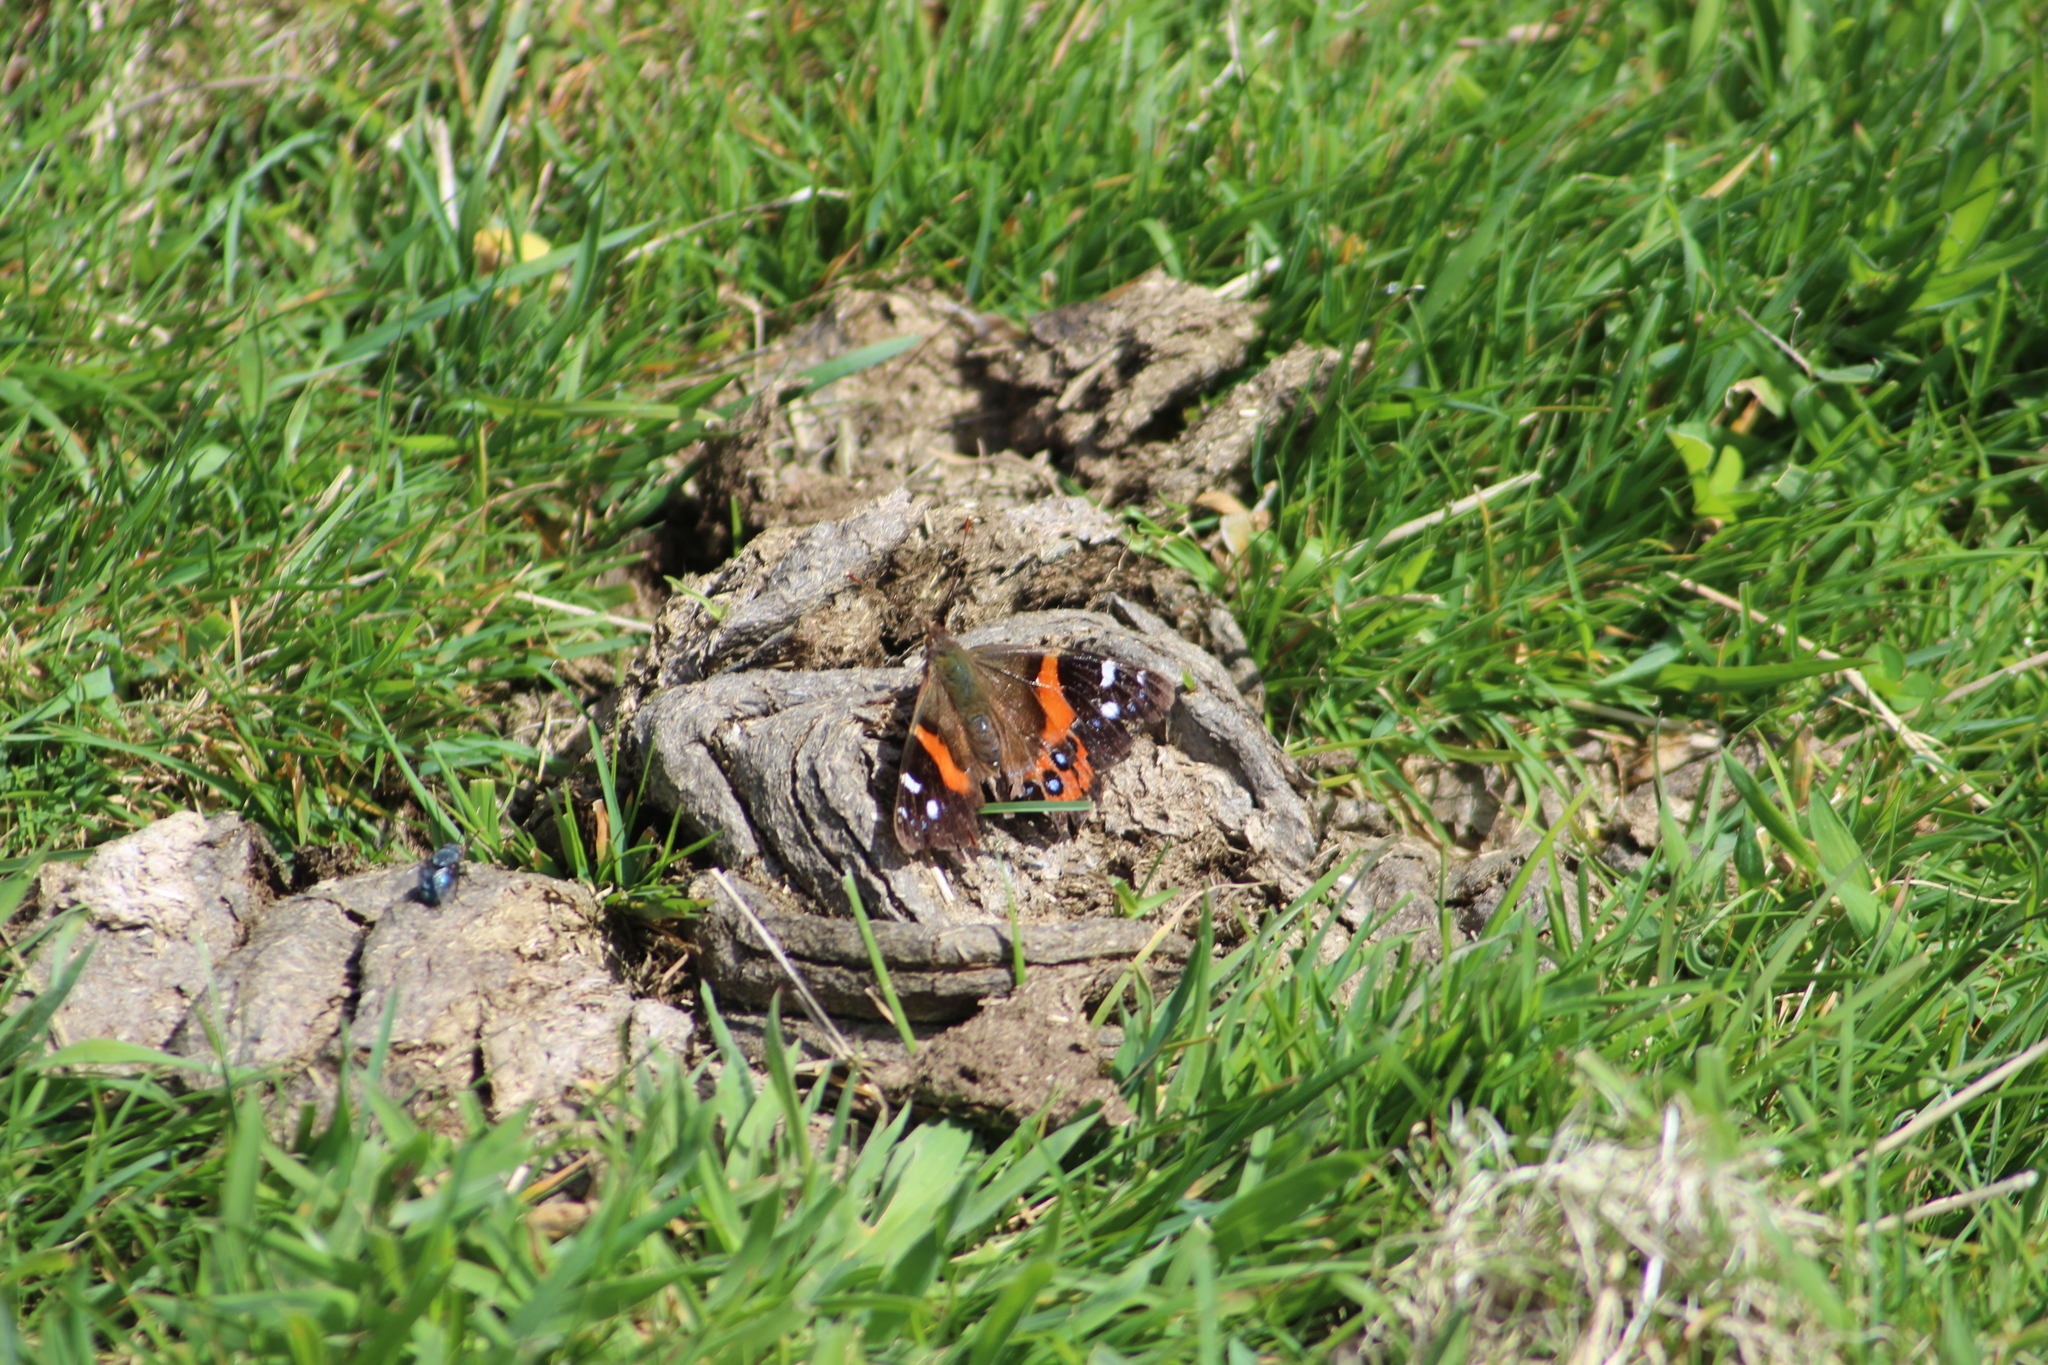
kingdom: Animalia
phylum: Arthropoda
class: Insecta
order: Lepidoptera
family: Nymphalidae
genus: Vanessa
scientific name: Vanessa gonerilla
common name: New zealand red admiral
